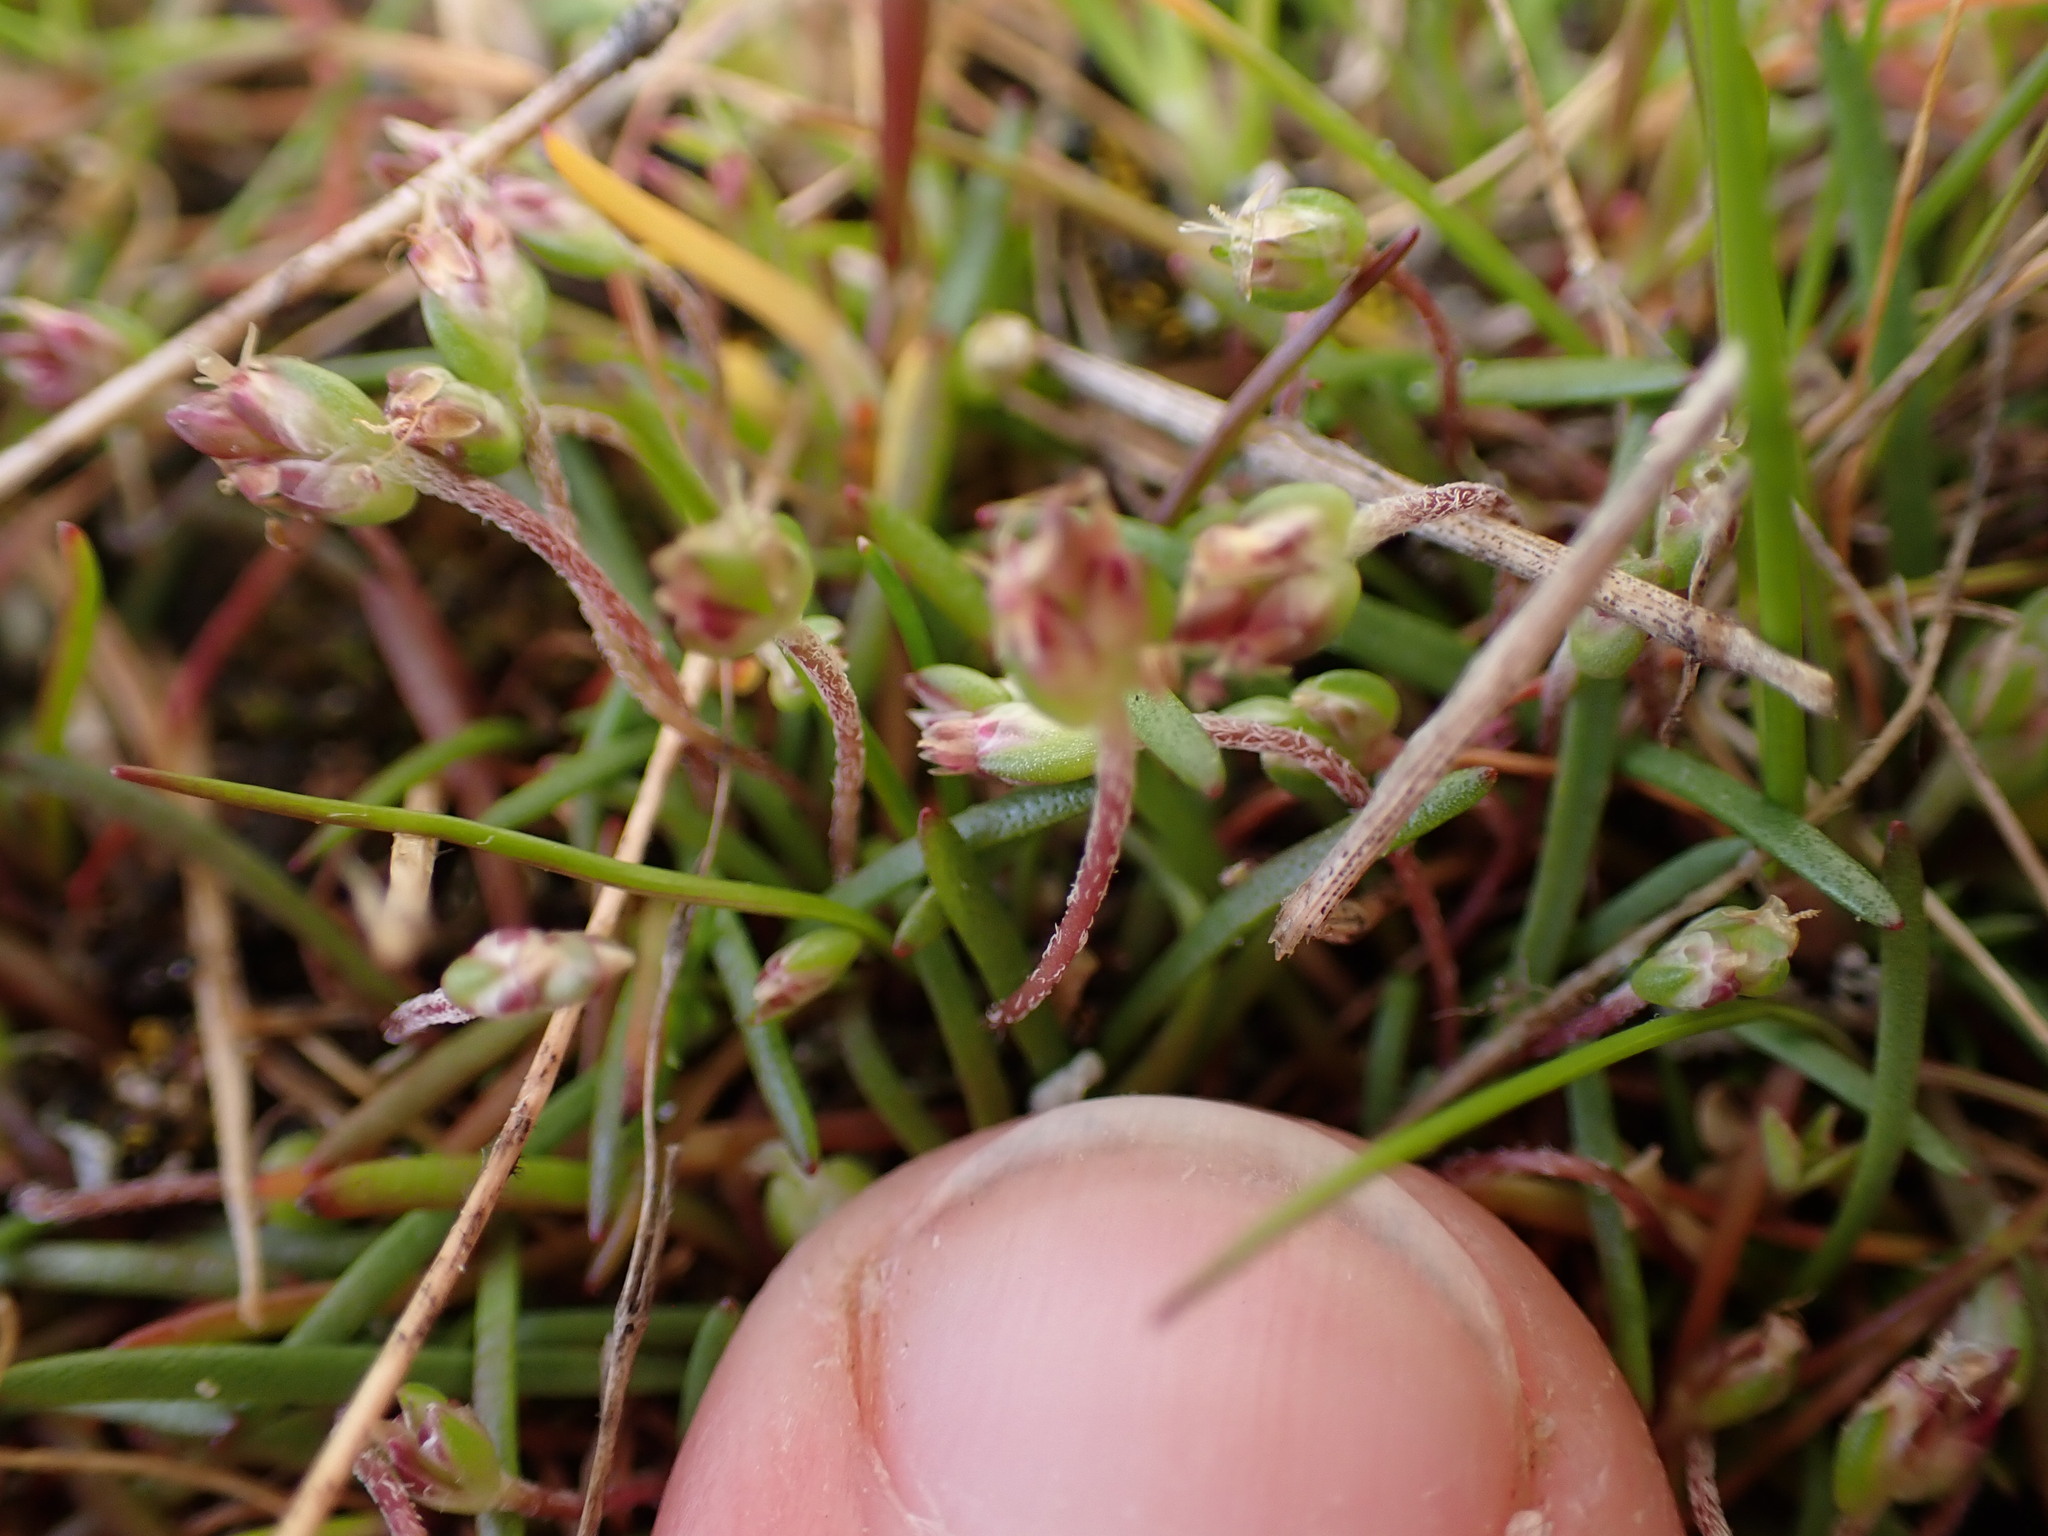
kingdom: Plantae
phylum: Tracheophyta
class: Magnoliopsida
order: Lamiales
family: Plantaginaceae
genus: Plantago
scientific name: Plantago elongata
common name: Linear-leaved plantain
